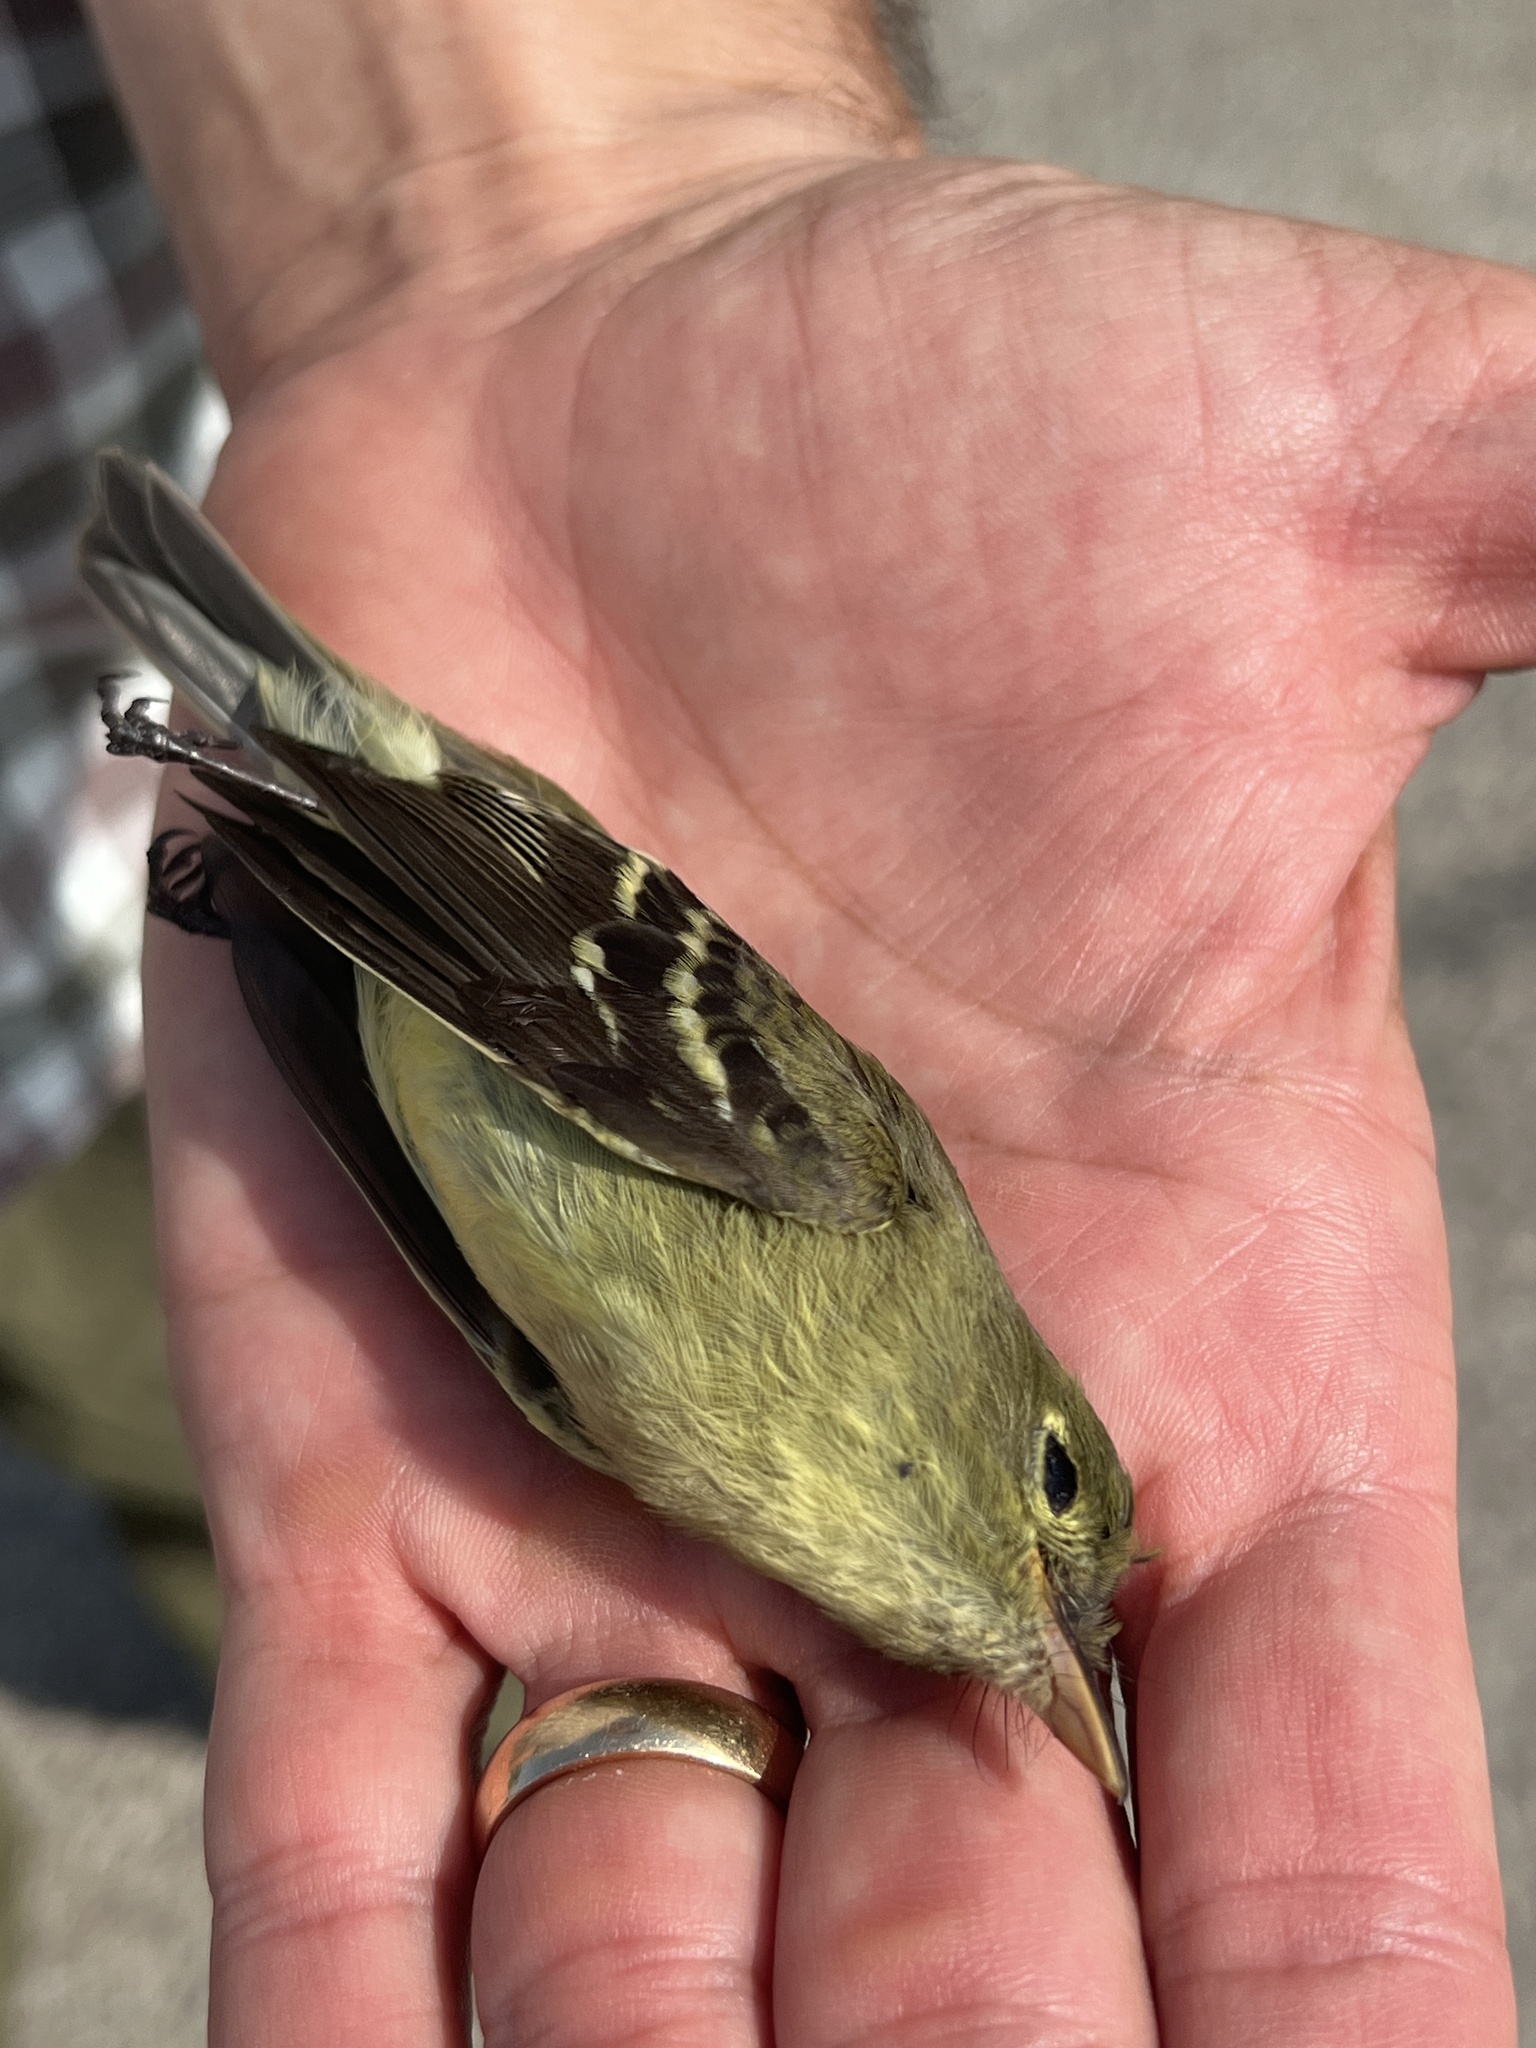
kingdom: Animalia
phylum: Chordata
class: Aves
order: Passeriformes
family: Tyrannidae
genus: Empidonax
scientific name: Empidonax flaviventris
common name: Yellow-bellied flycatcher
